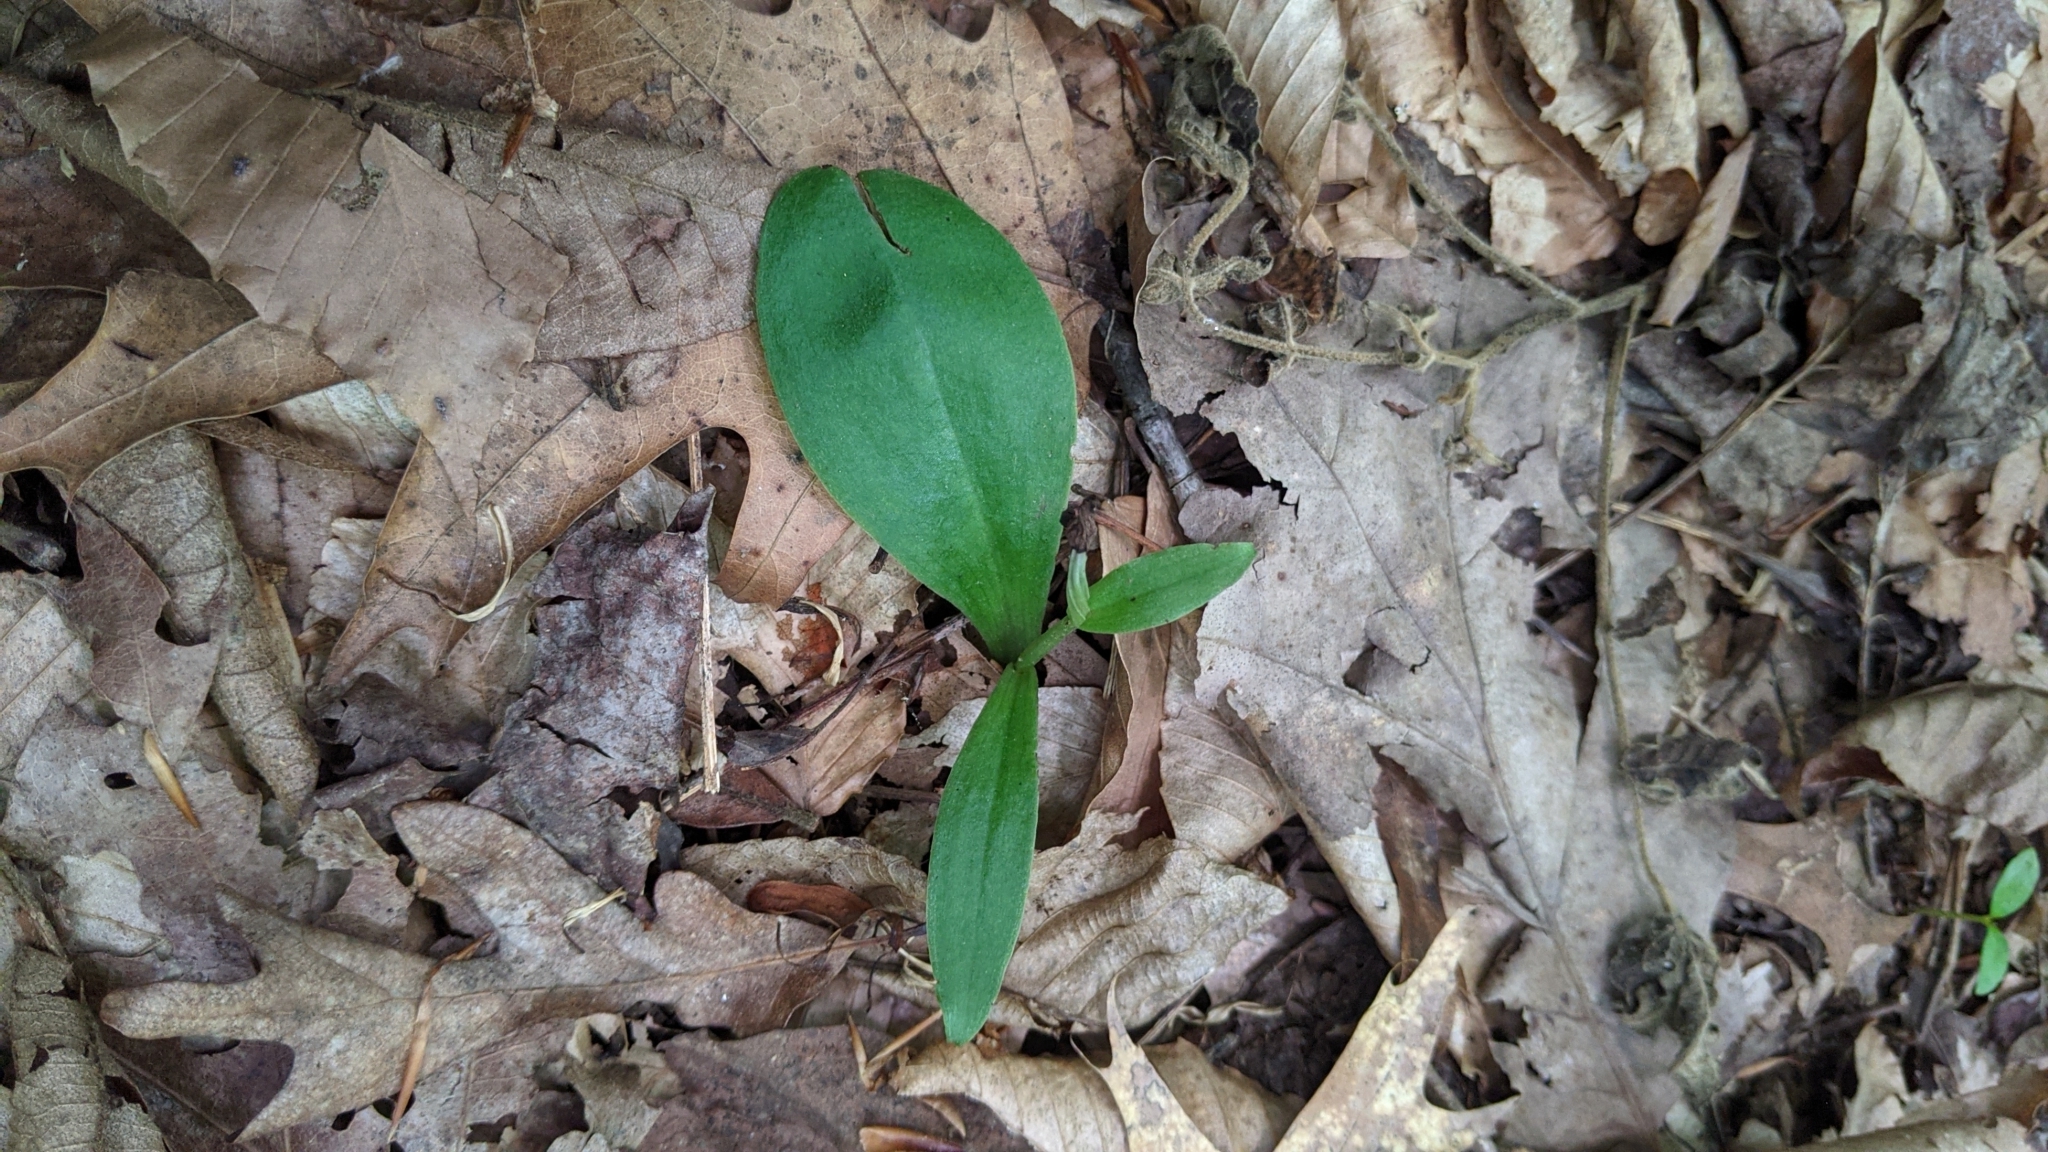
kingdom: Plantae
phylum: Tracheophyta
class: Liliopsida
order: Asparagales
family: Orchidaceae
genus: Galearis
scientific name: Galearis spectabilis
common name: Purple-hooded orchis
